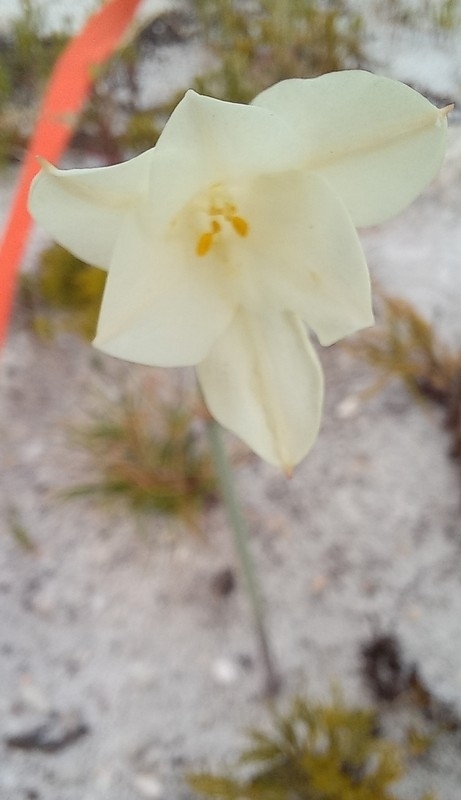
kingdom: Plantae
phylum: Tracheophyta
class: Liliopsida
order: Asparagales
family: Amaryllidaceae
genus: Cyrtanthus
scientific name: Cyrtanthus leucanthus
